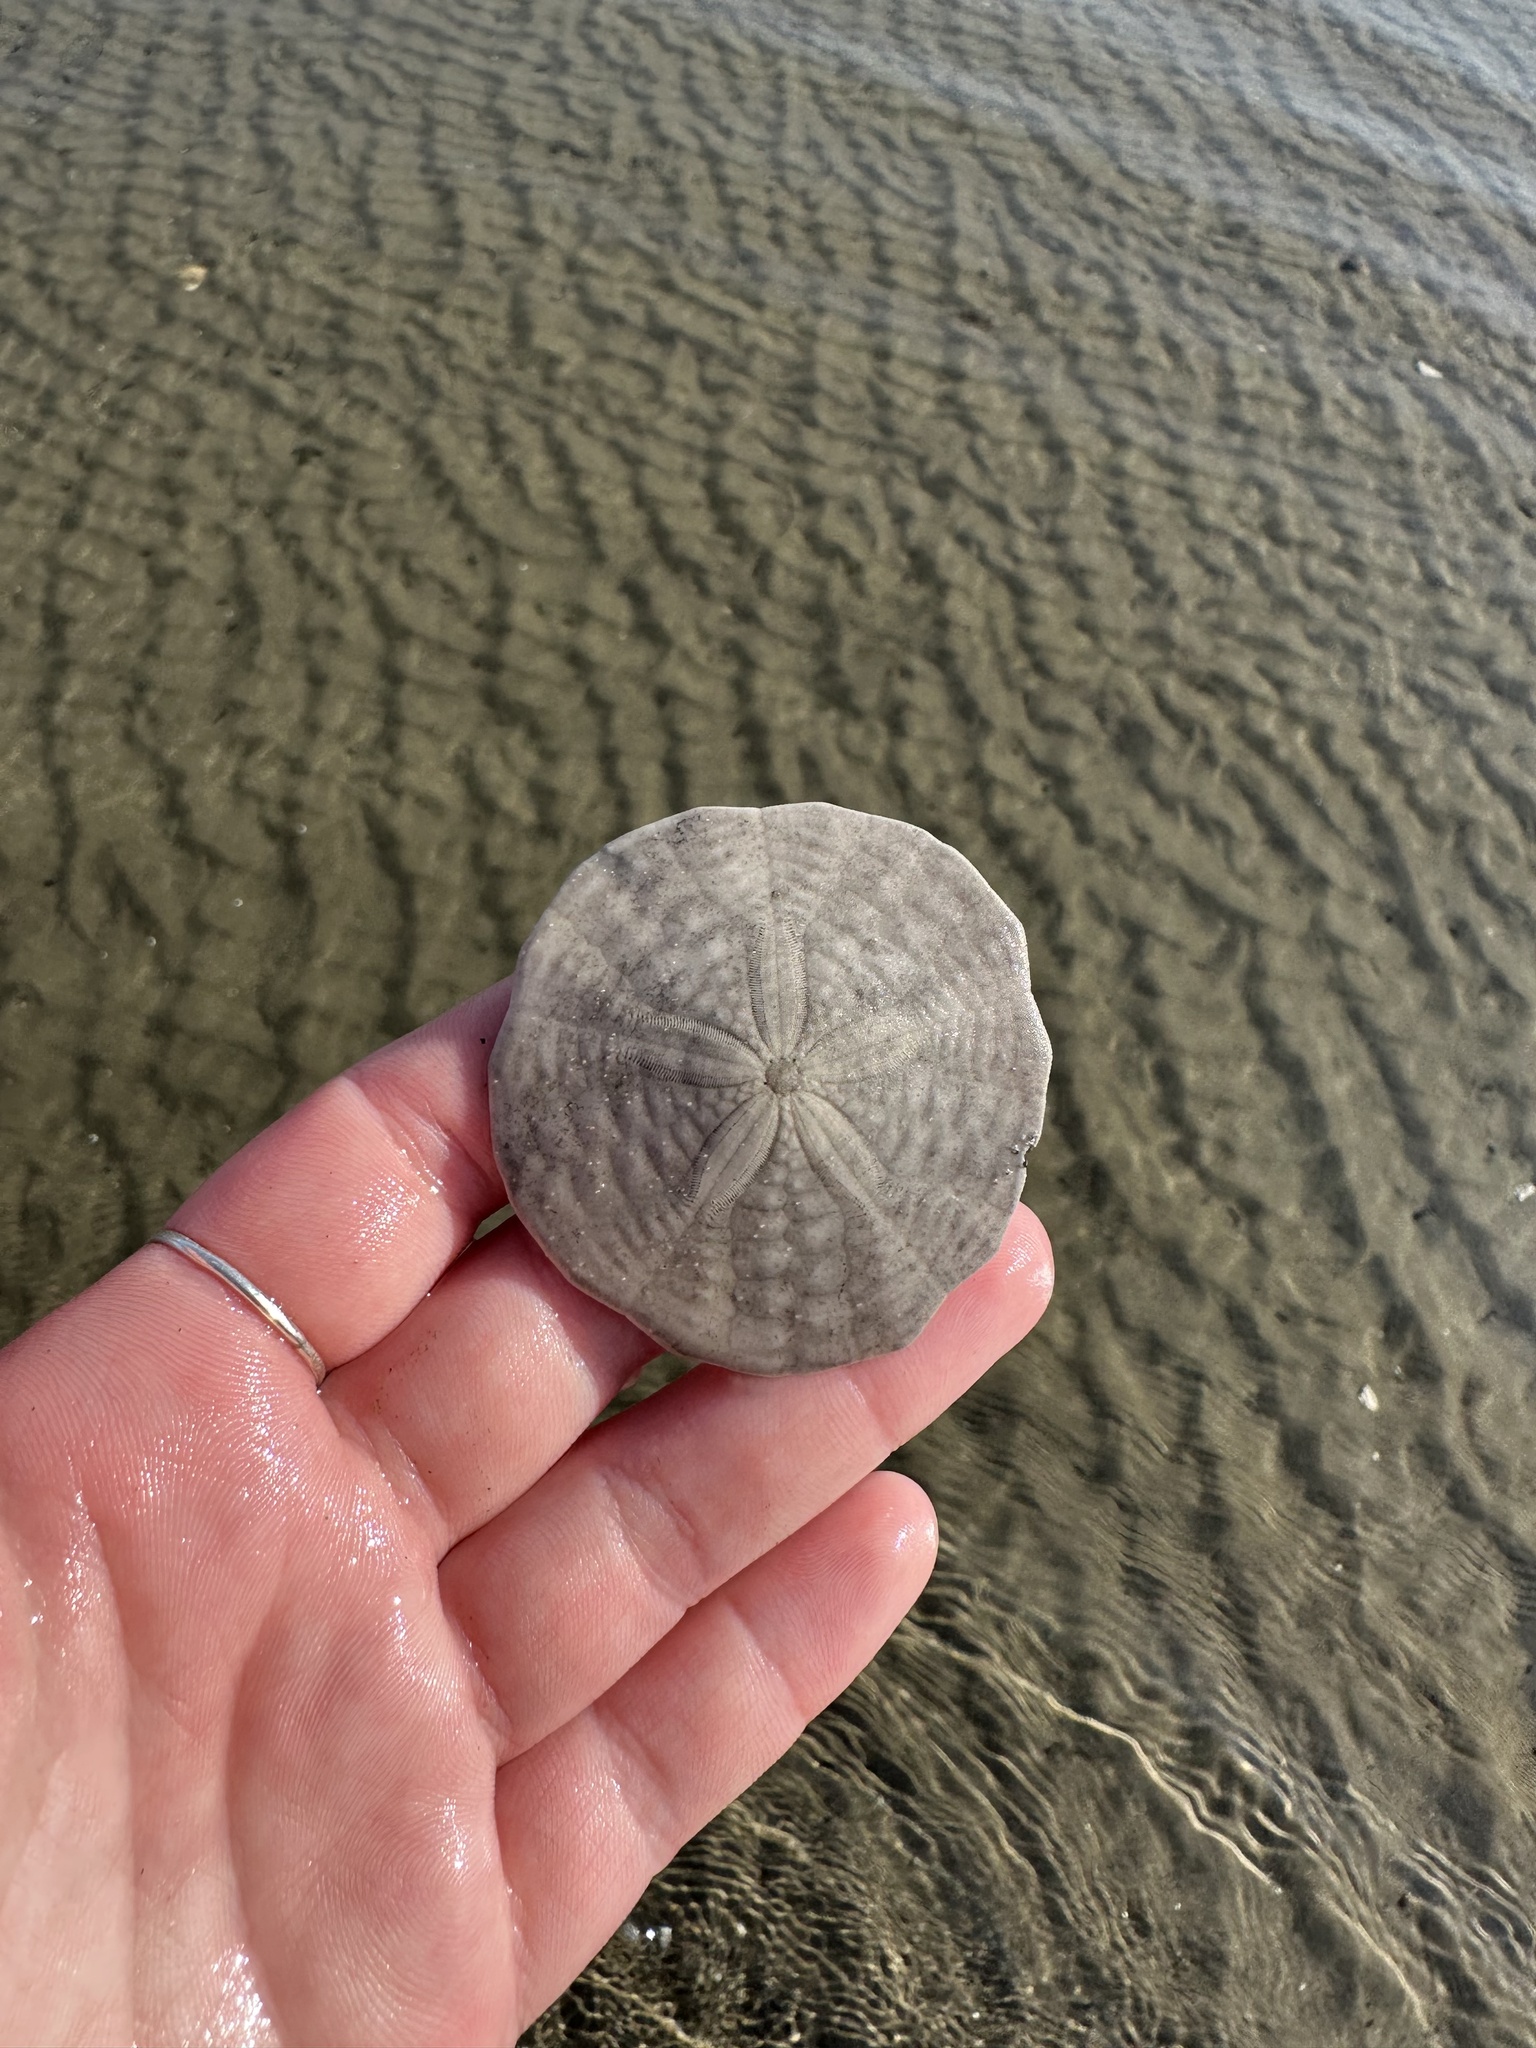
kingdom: Animalia
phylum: Echinodermata
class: Echinoidea
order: Echinolampadacea
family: Echinarachniidae
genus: Echinarachnius
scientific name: Echinarachnius parma
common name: Common sand dollar
